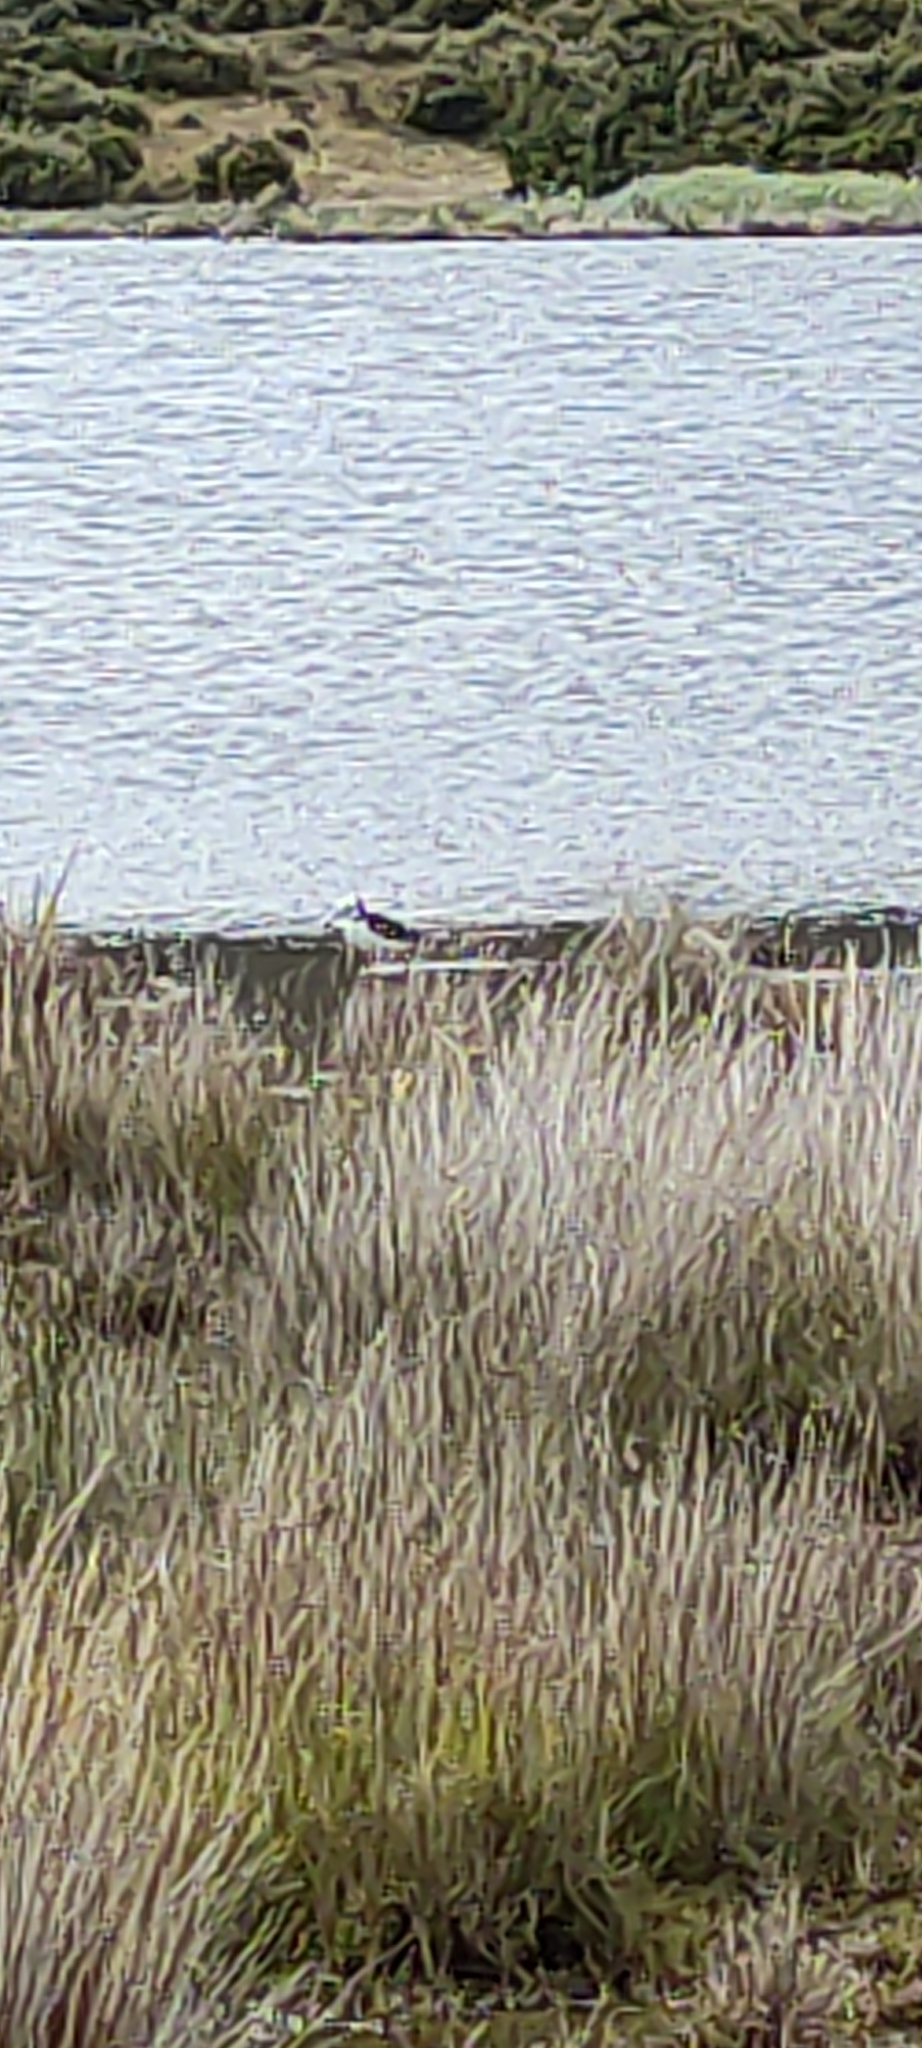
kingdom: Animalia
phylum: Chordata
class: Aves
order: Charadriiformes
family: Recurvirostridae
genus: Himantopus
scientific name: Himantopus leucocephalus
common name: White-headed stilt
